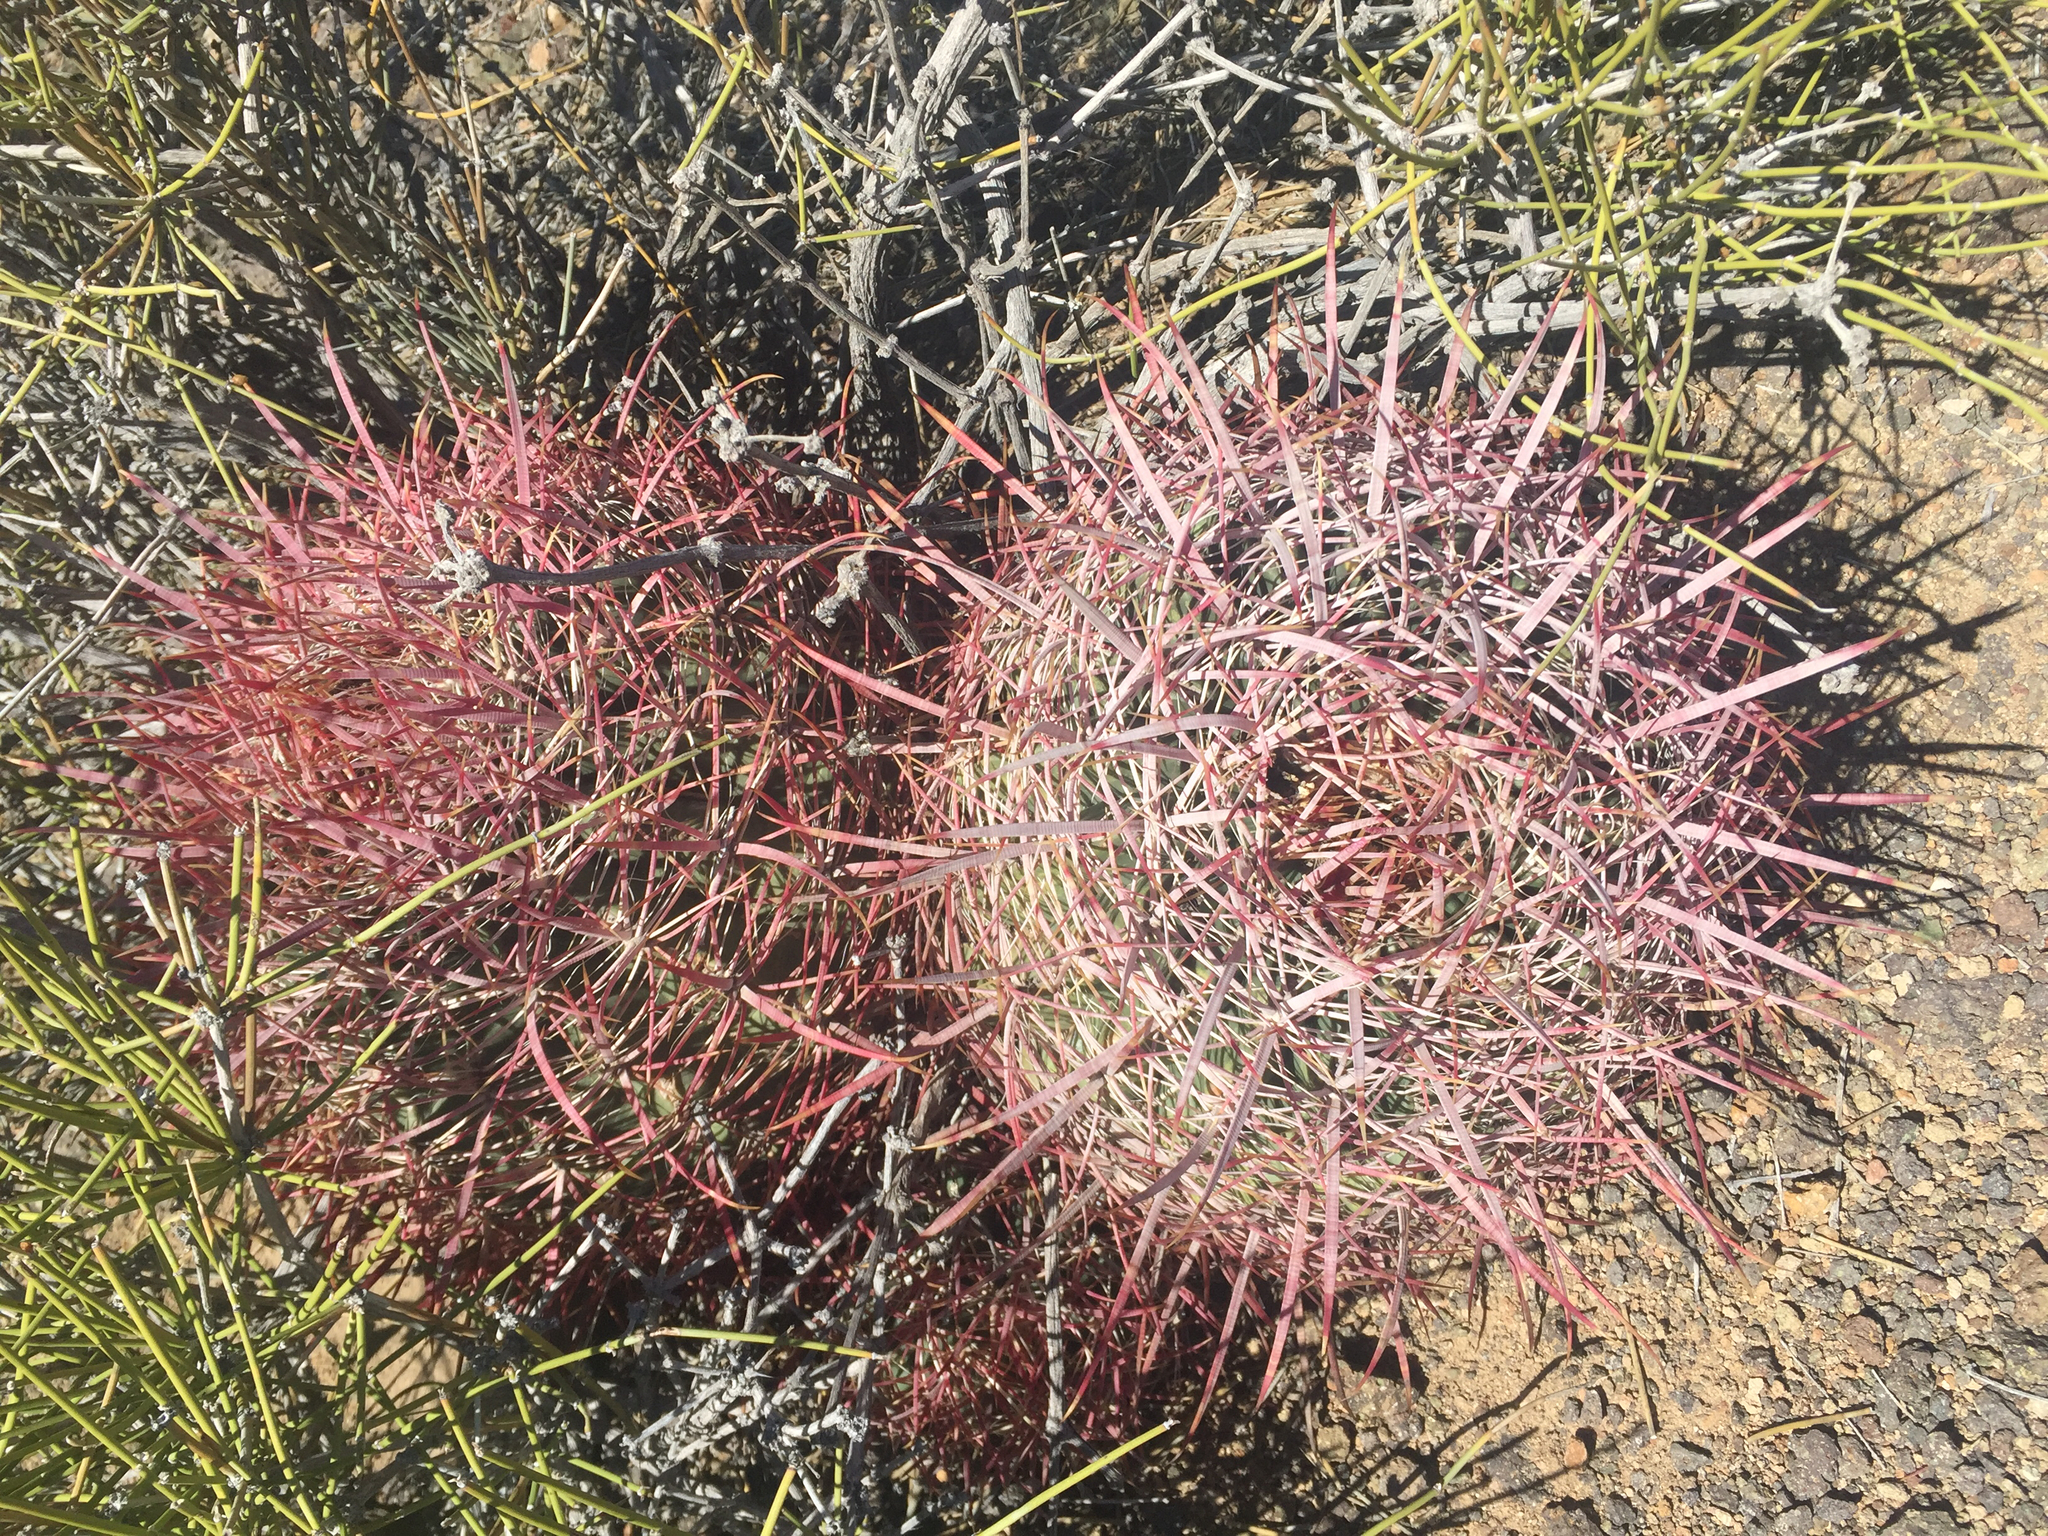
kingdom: Plantae
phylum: Tracheophyta
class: Magnoliopsida
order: Caryophyllales
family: Cactaceae
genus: Ferocactus
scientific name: Ferocactus cylindraceus
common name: California barrel cactus
